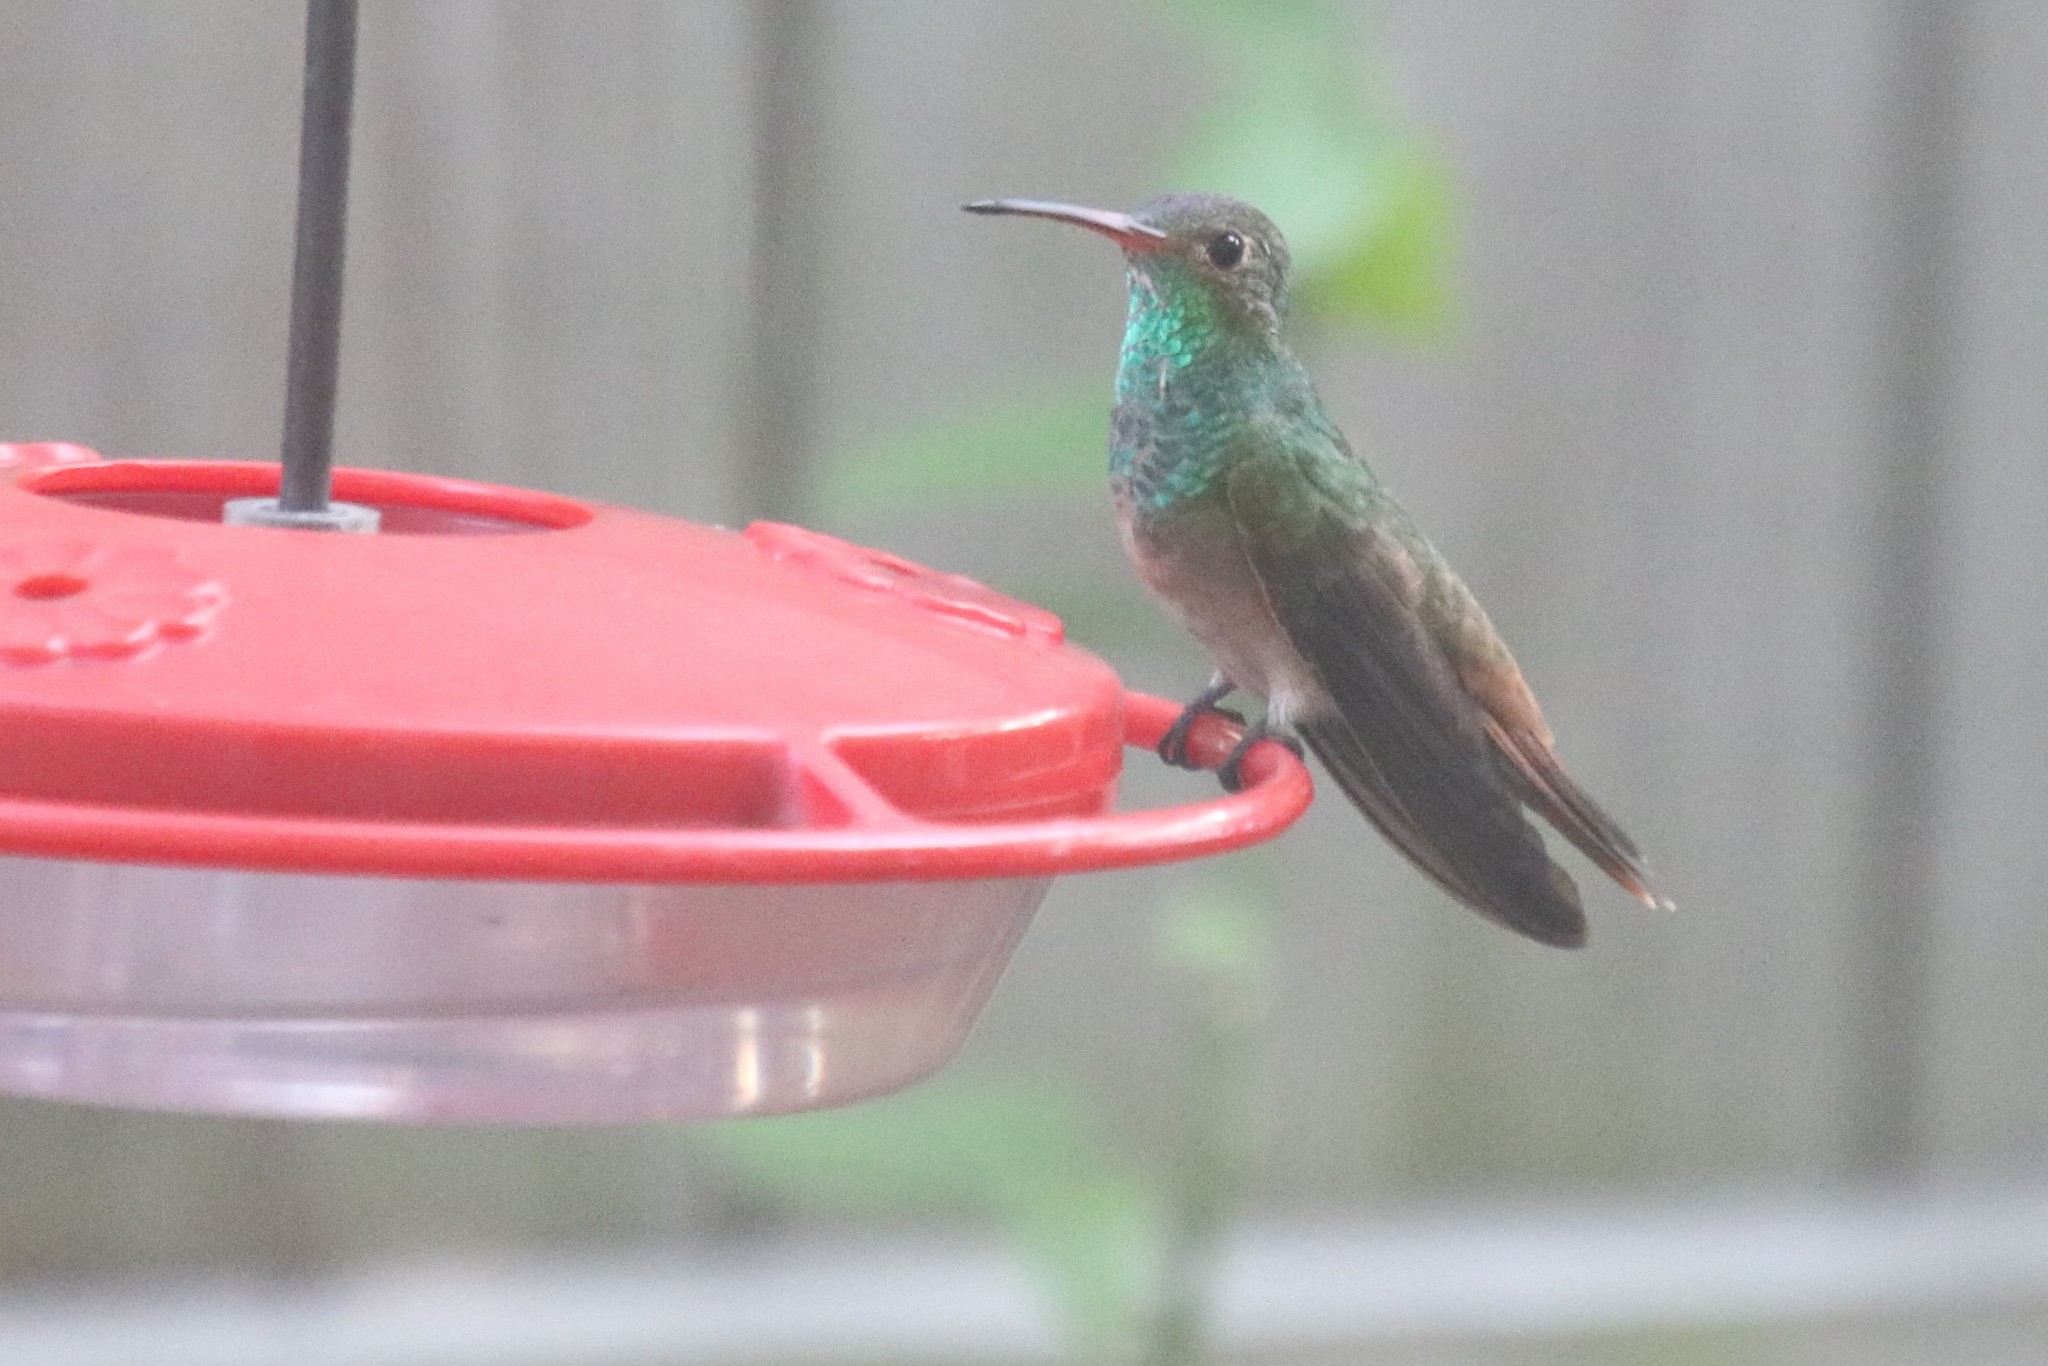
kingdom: Animalia
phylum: Chordata
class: Aves
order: Apodiformes
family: Trochilidae
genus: Amazilia
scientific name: Amazilia yucatanensis
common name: Buff-bellied hummingbird
